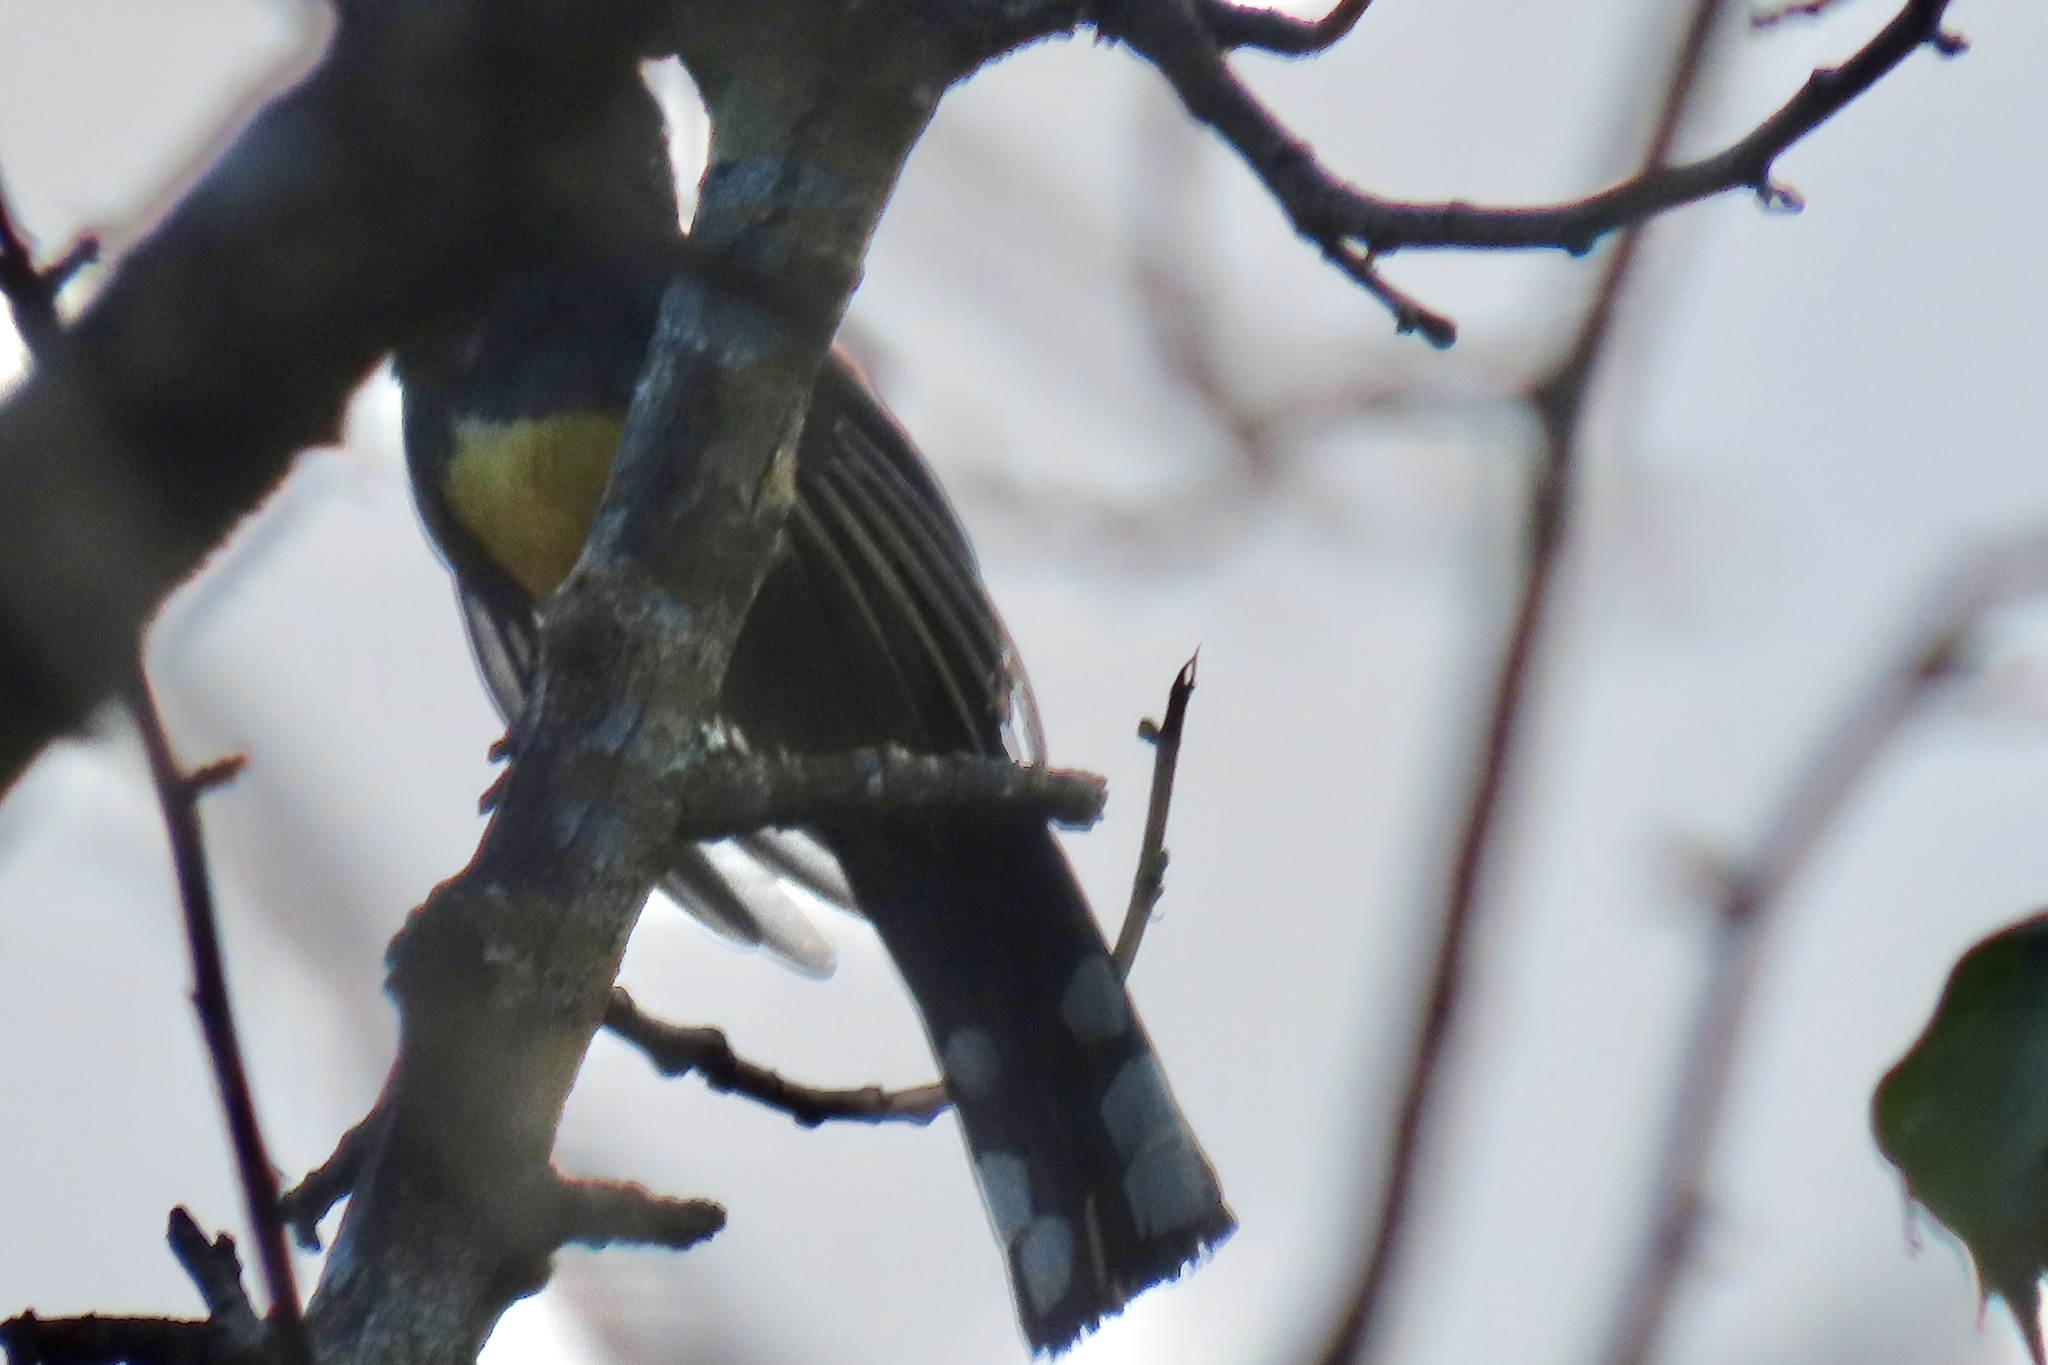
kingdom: Animalia
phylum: Chordata
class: Aves
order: Trogoniformes
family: Trogonidae
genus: Trogon
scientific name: Trogon melanocephalus
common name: Black-headed trogon
